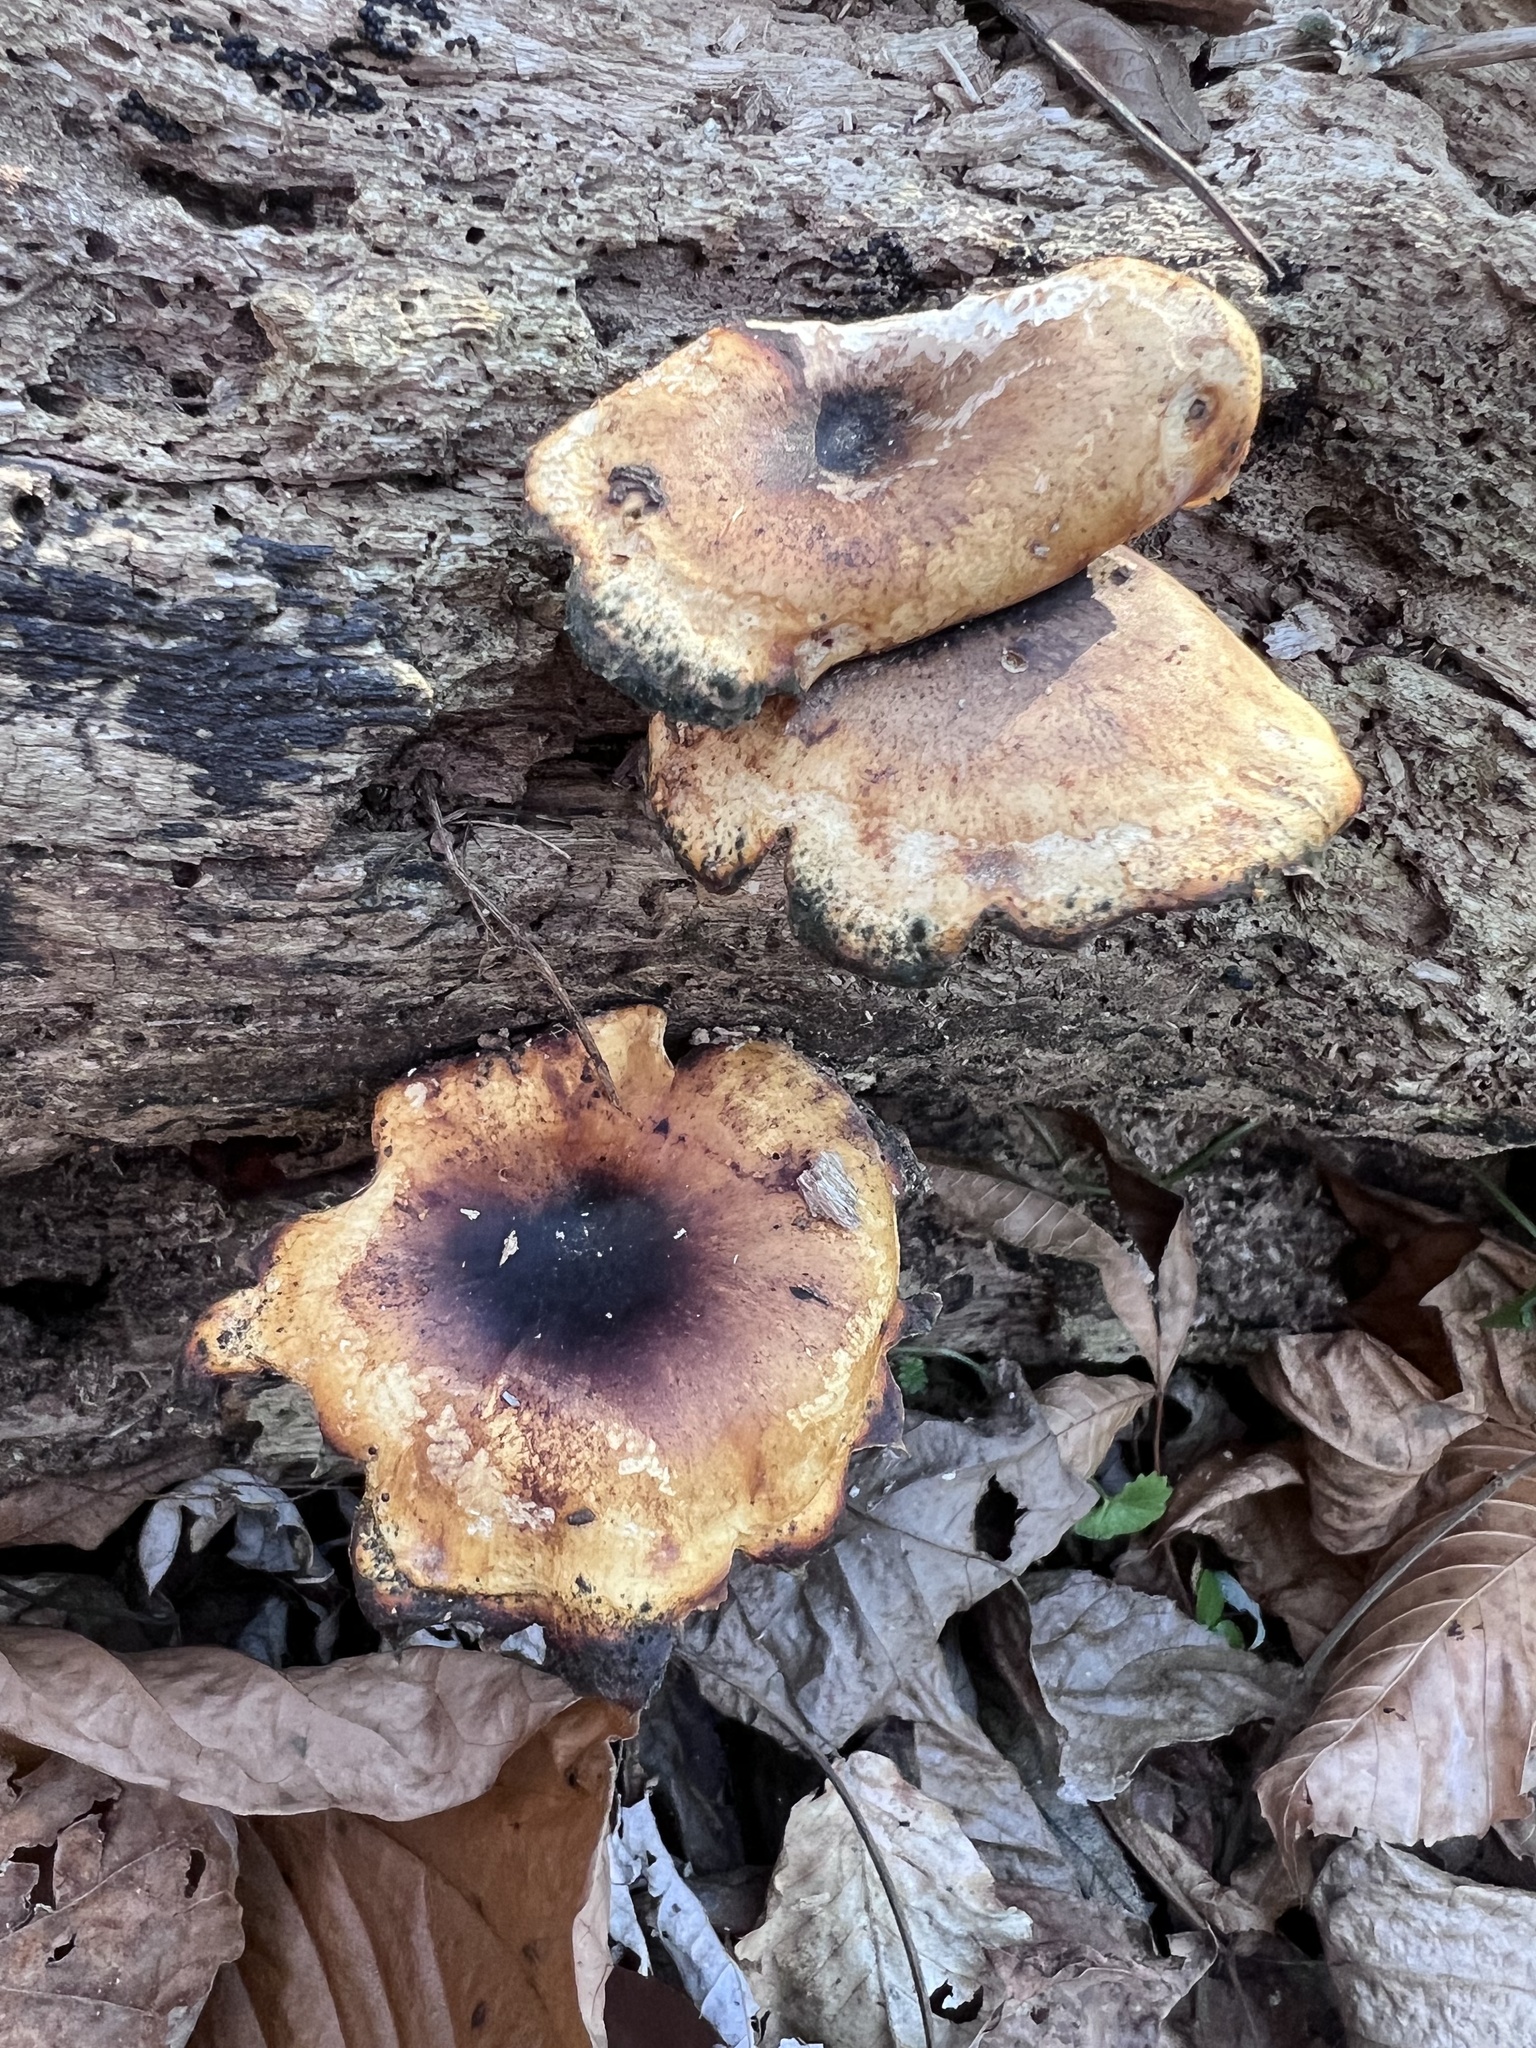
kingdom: Fungi
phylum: Basidiomycota
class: Agaricomycetes
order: Polyporales
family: Polyporaceae
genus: Picipes
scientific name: Picipes badius
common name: Bay polypore
